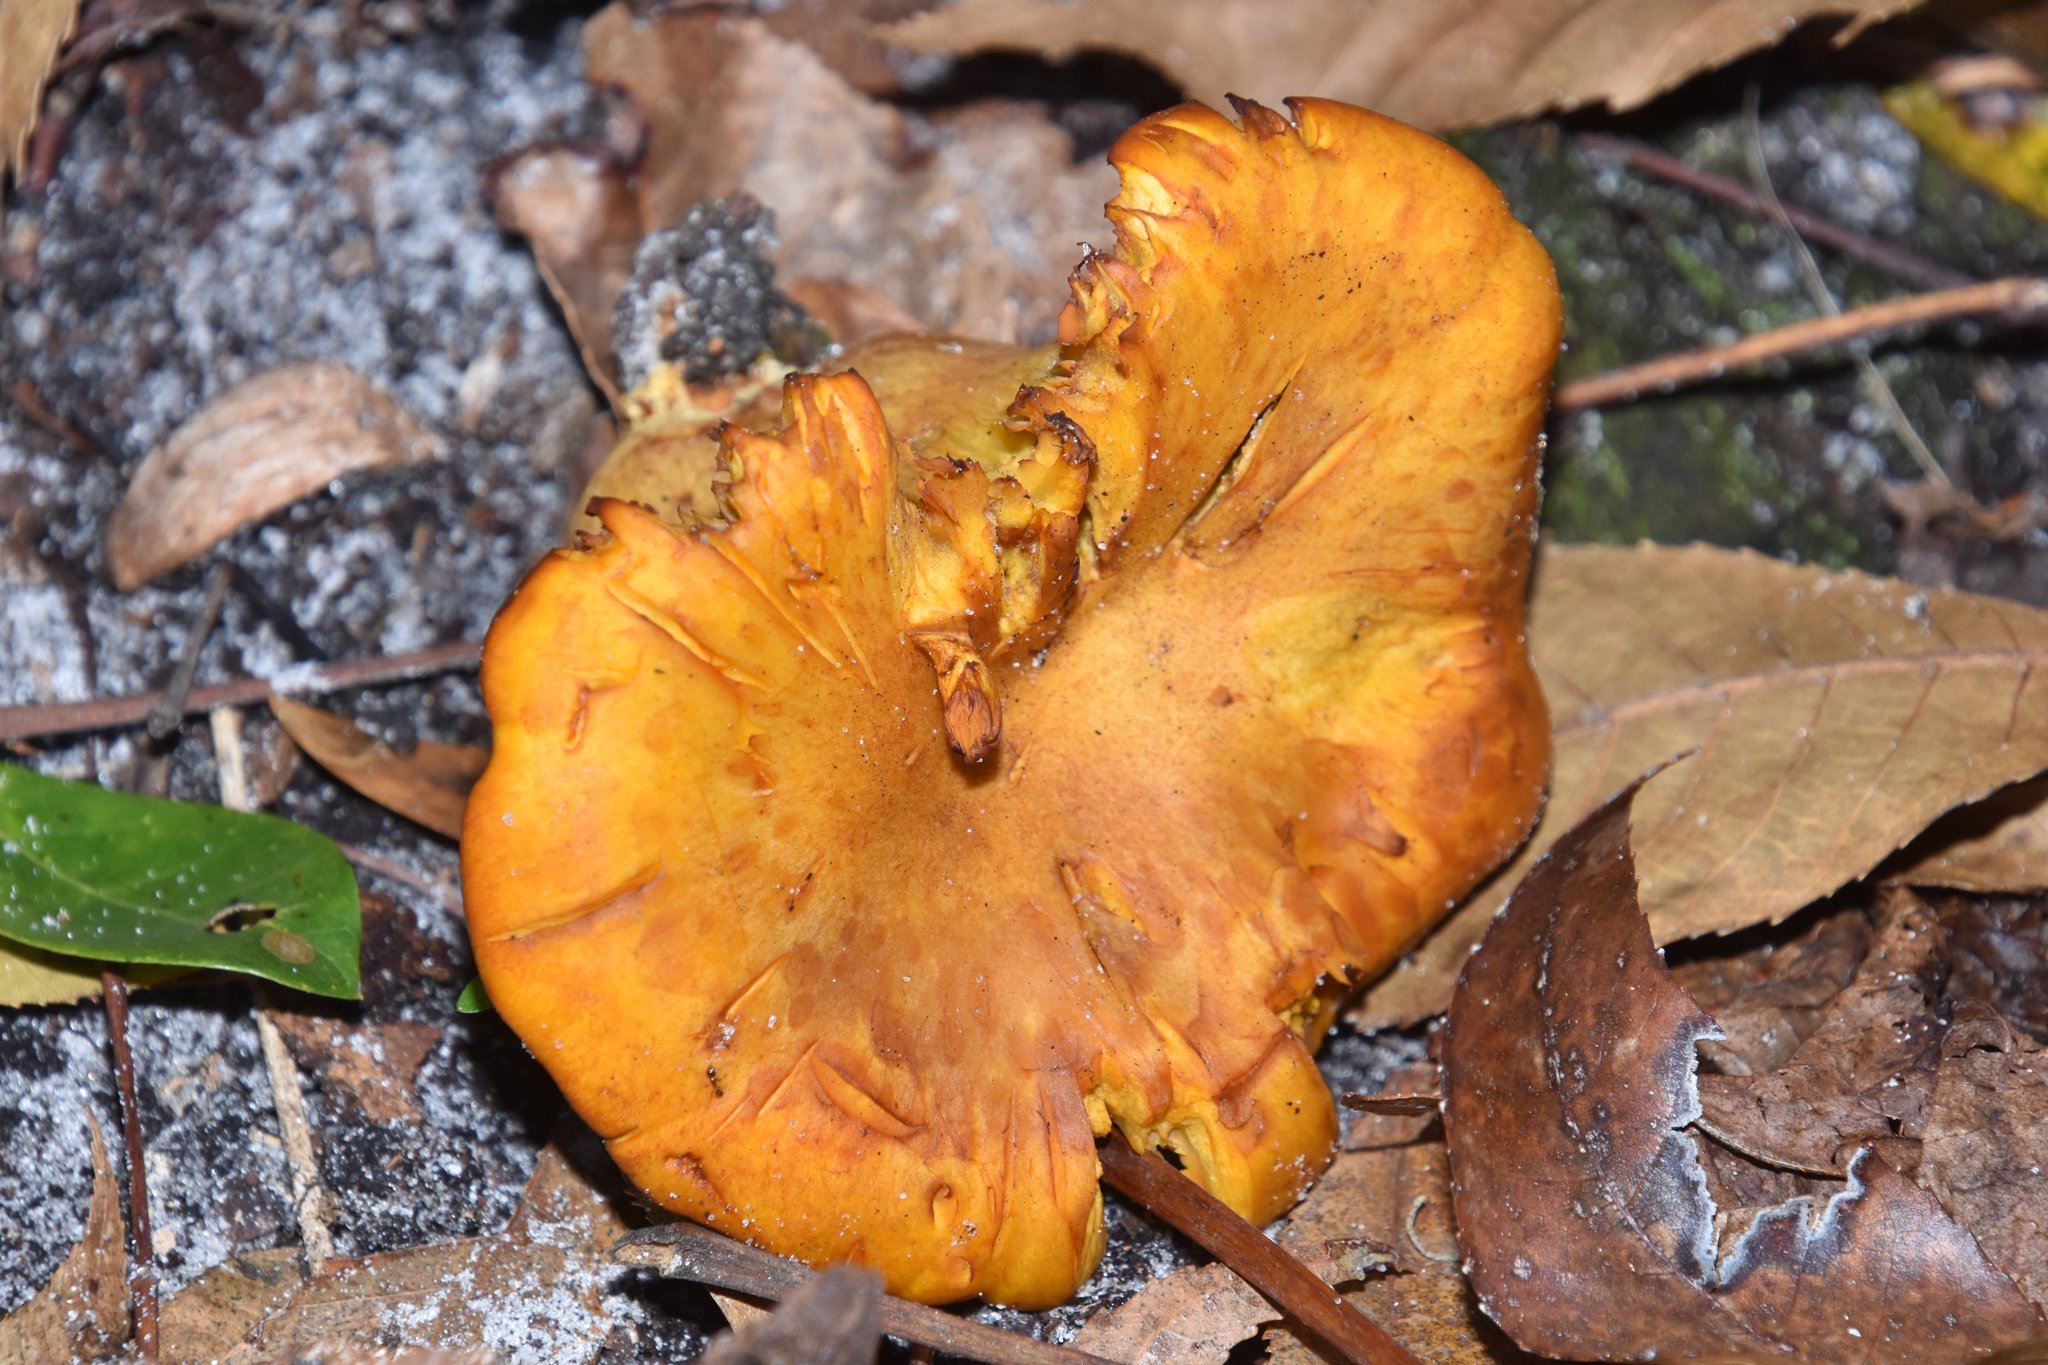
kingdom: Fungi
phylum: Basidiomycota
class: Agaricomycetes
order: Agaricales
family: Omphalotaceae
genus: Omphalotus
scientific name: Omphalotus subilludens
